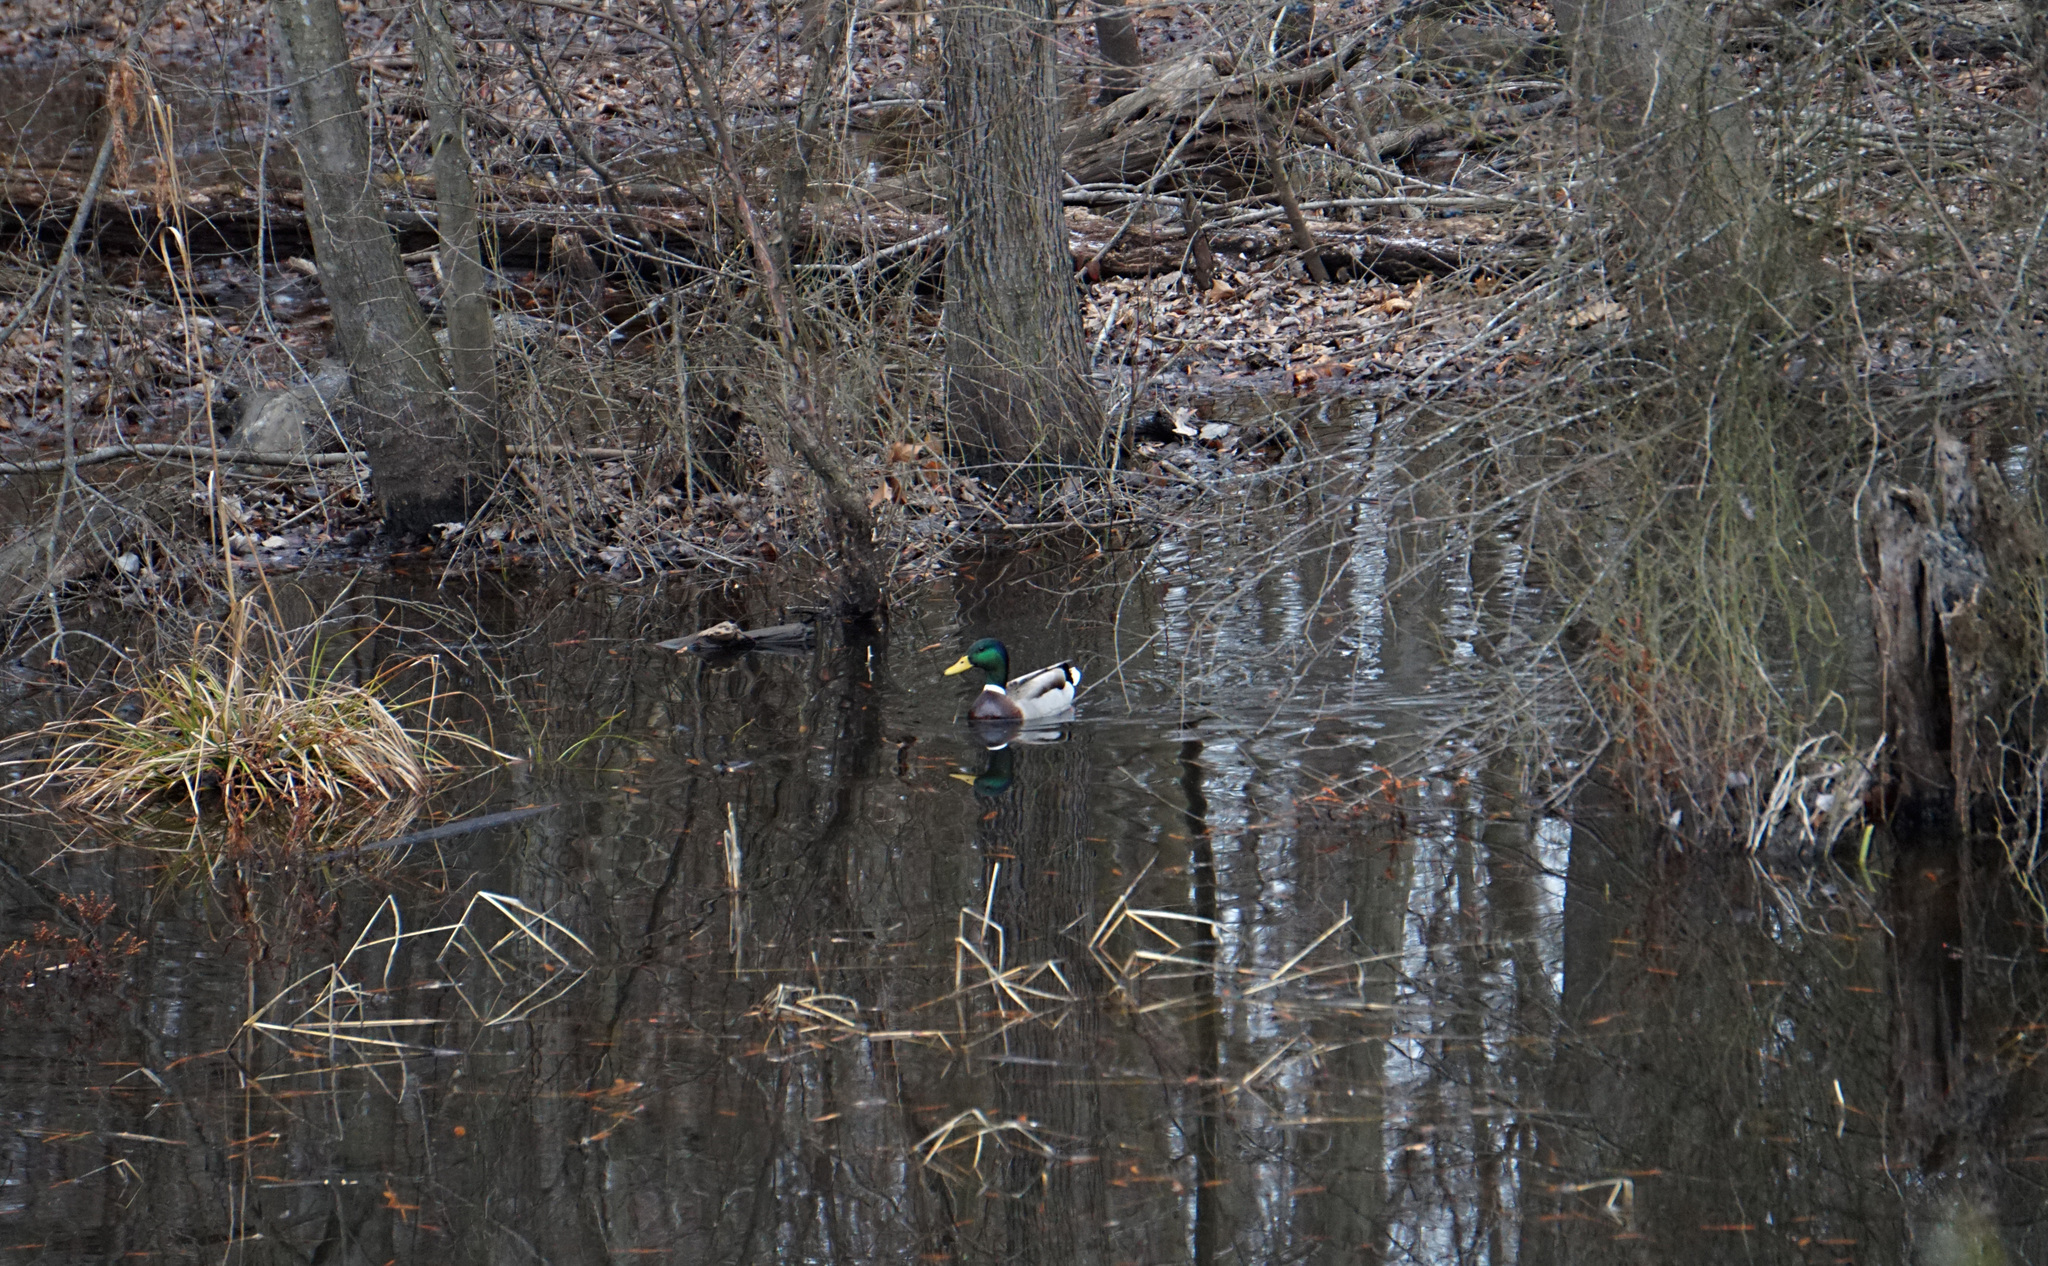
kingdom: Animalia
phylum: Chordata
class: Aves
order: Anseriformes
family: Anatidae
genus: Anas
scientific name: Anas platyrhynchos
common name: Mallard
